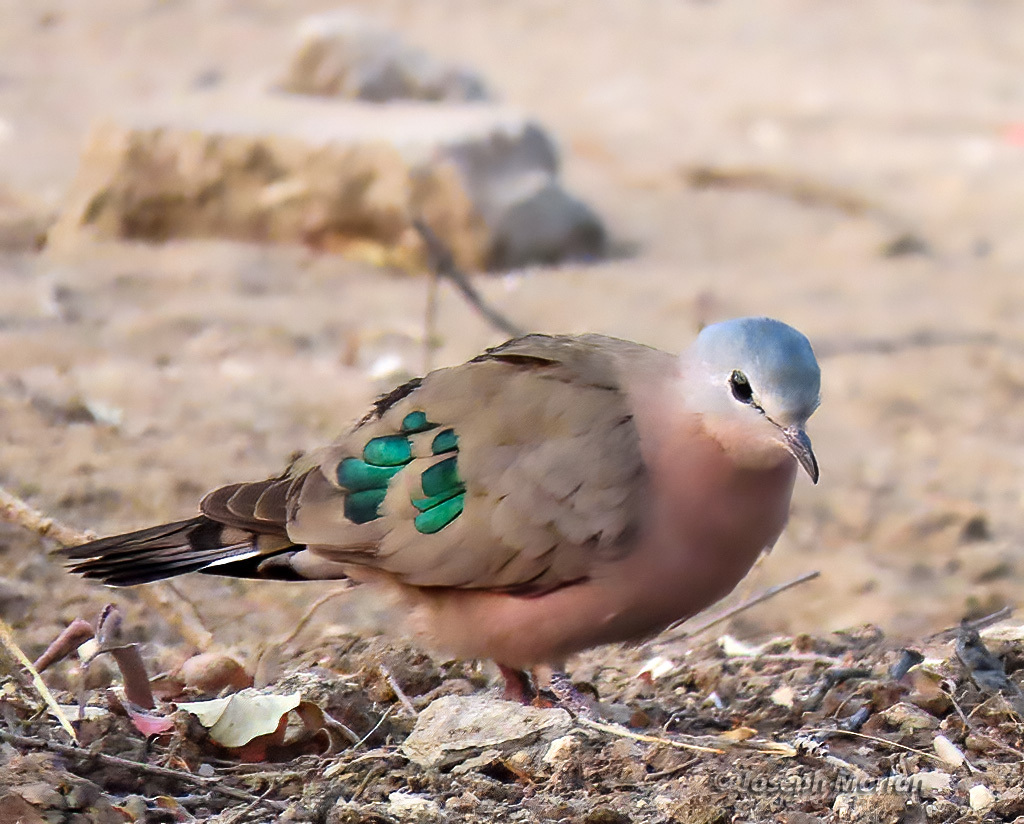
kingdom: Animalia
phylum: Chordata
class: Aves
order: Columbiformes
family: Columbidae
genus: Turtur
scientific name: Turtur chalcospilos
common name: Emerald-spotted wood dove
